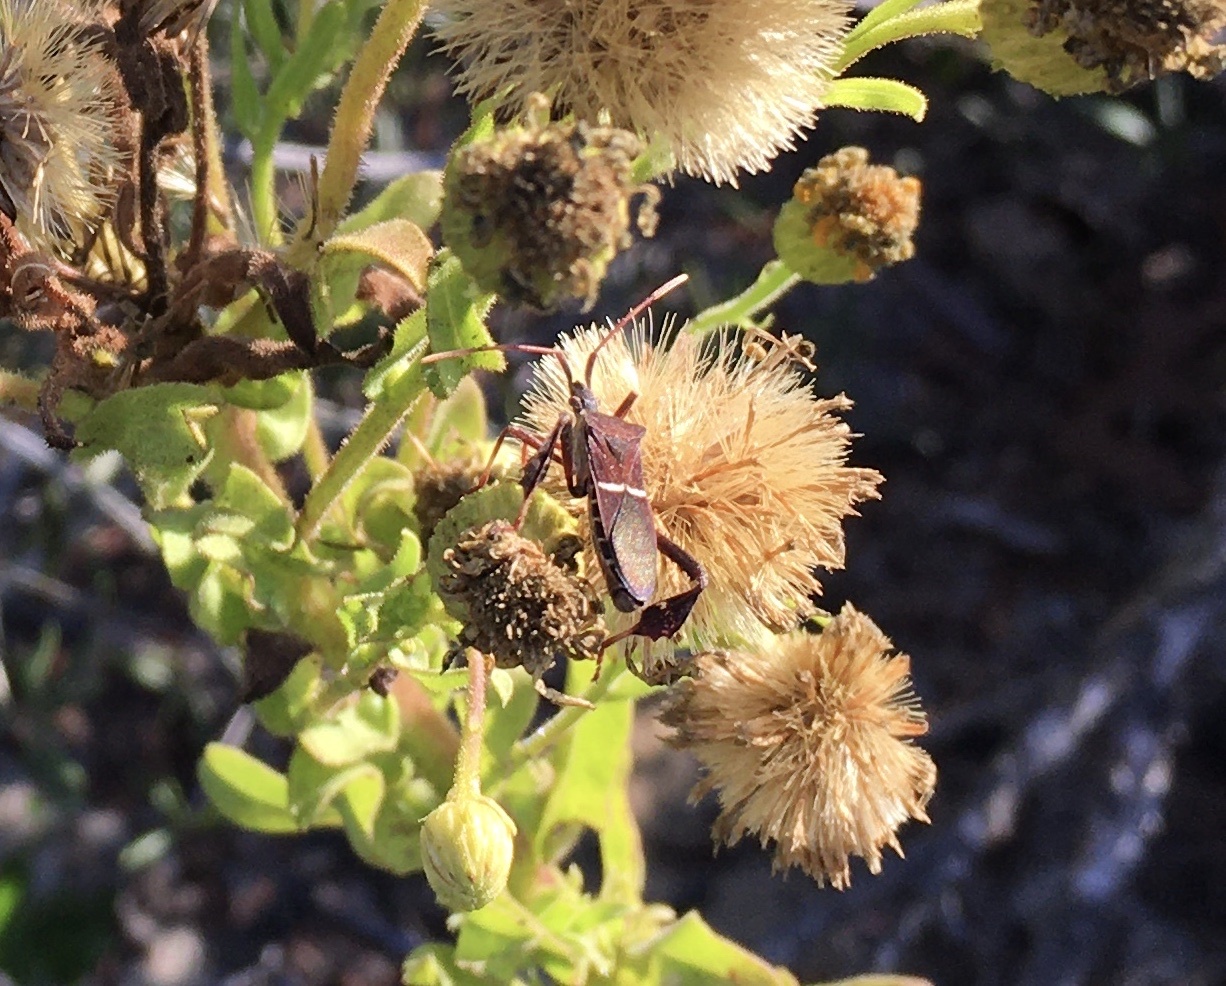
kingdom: Animalia
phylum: Arthropoda
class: Insecta
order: Hemiptera
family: Coreidae
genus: Leptoglossus
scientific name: Leptoglossus phyllopus
